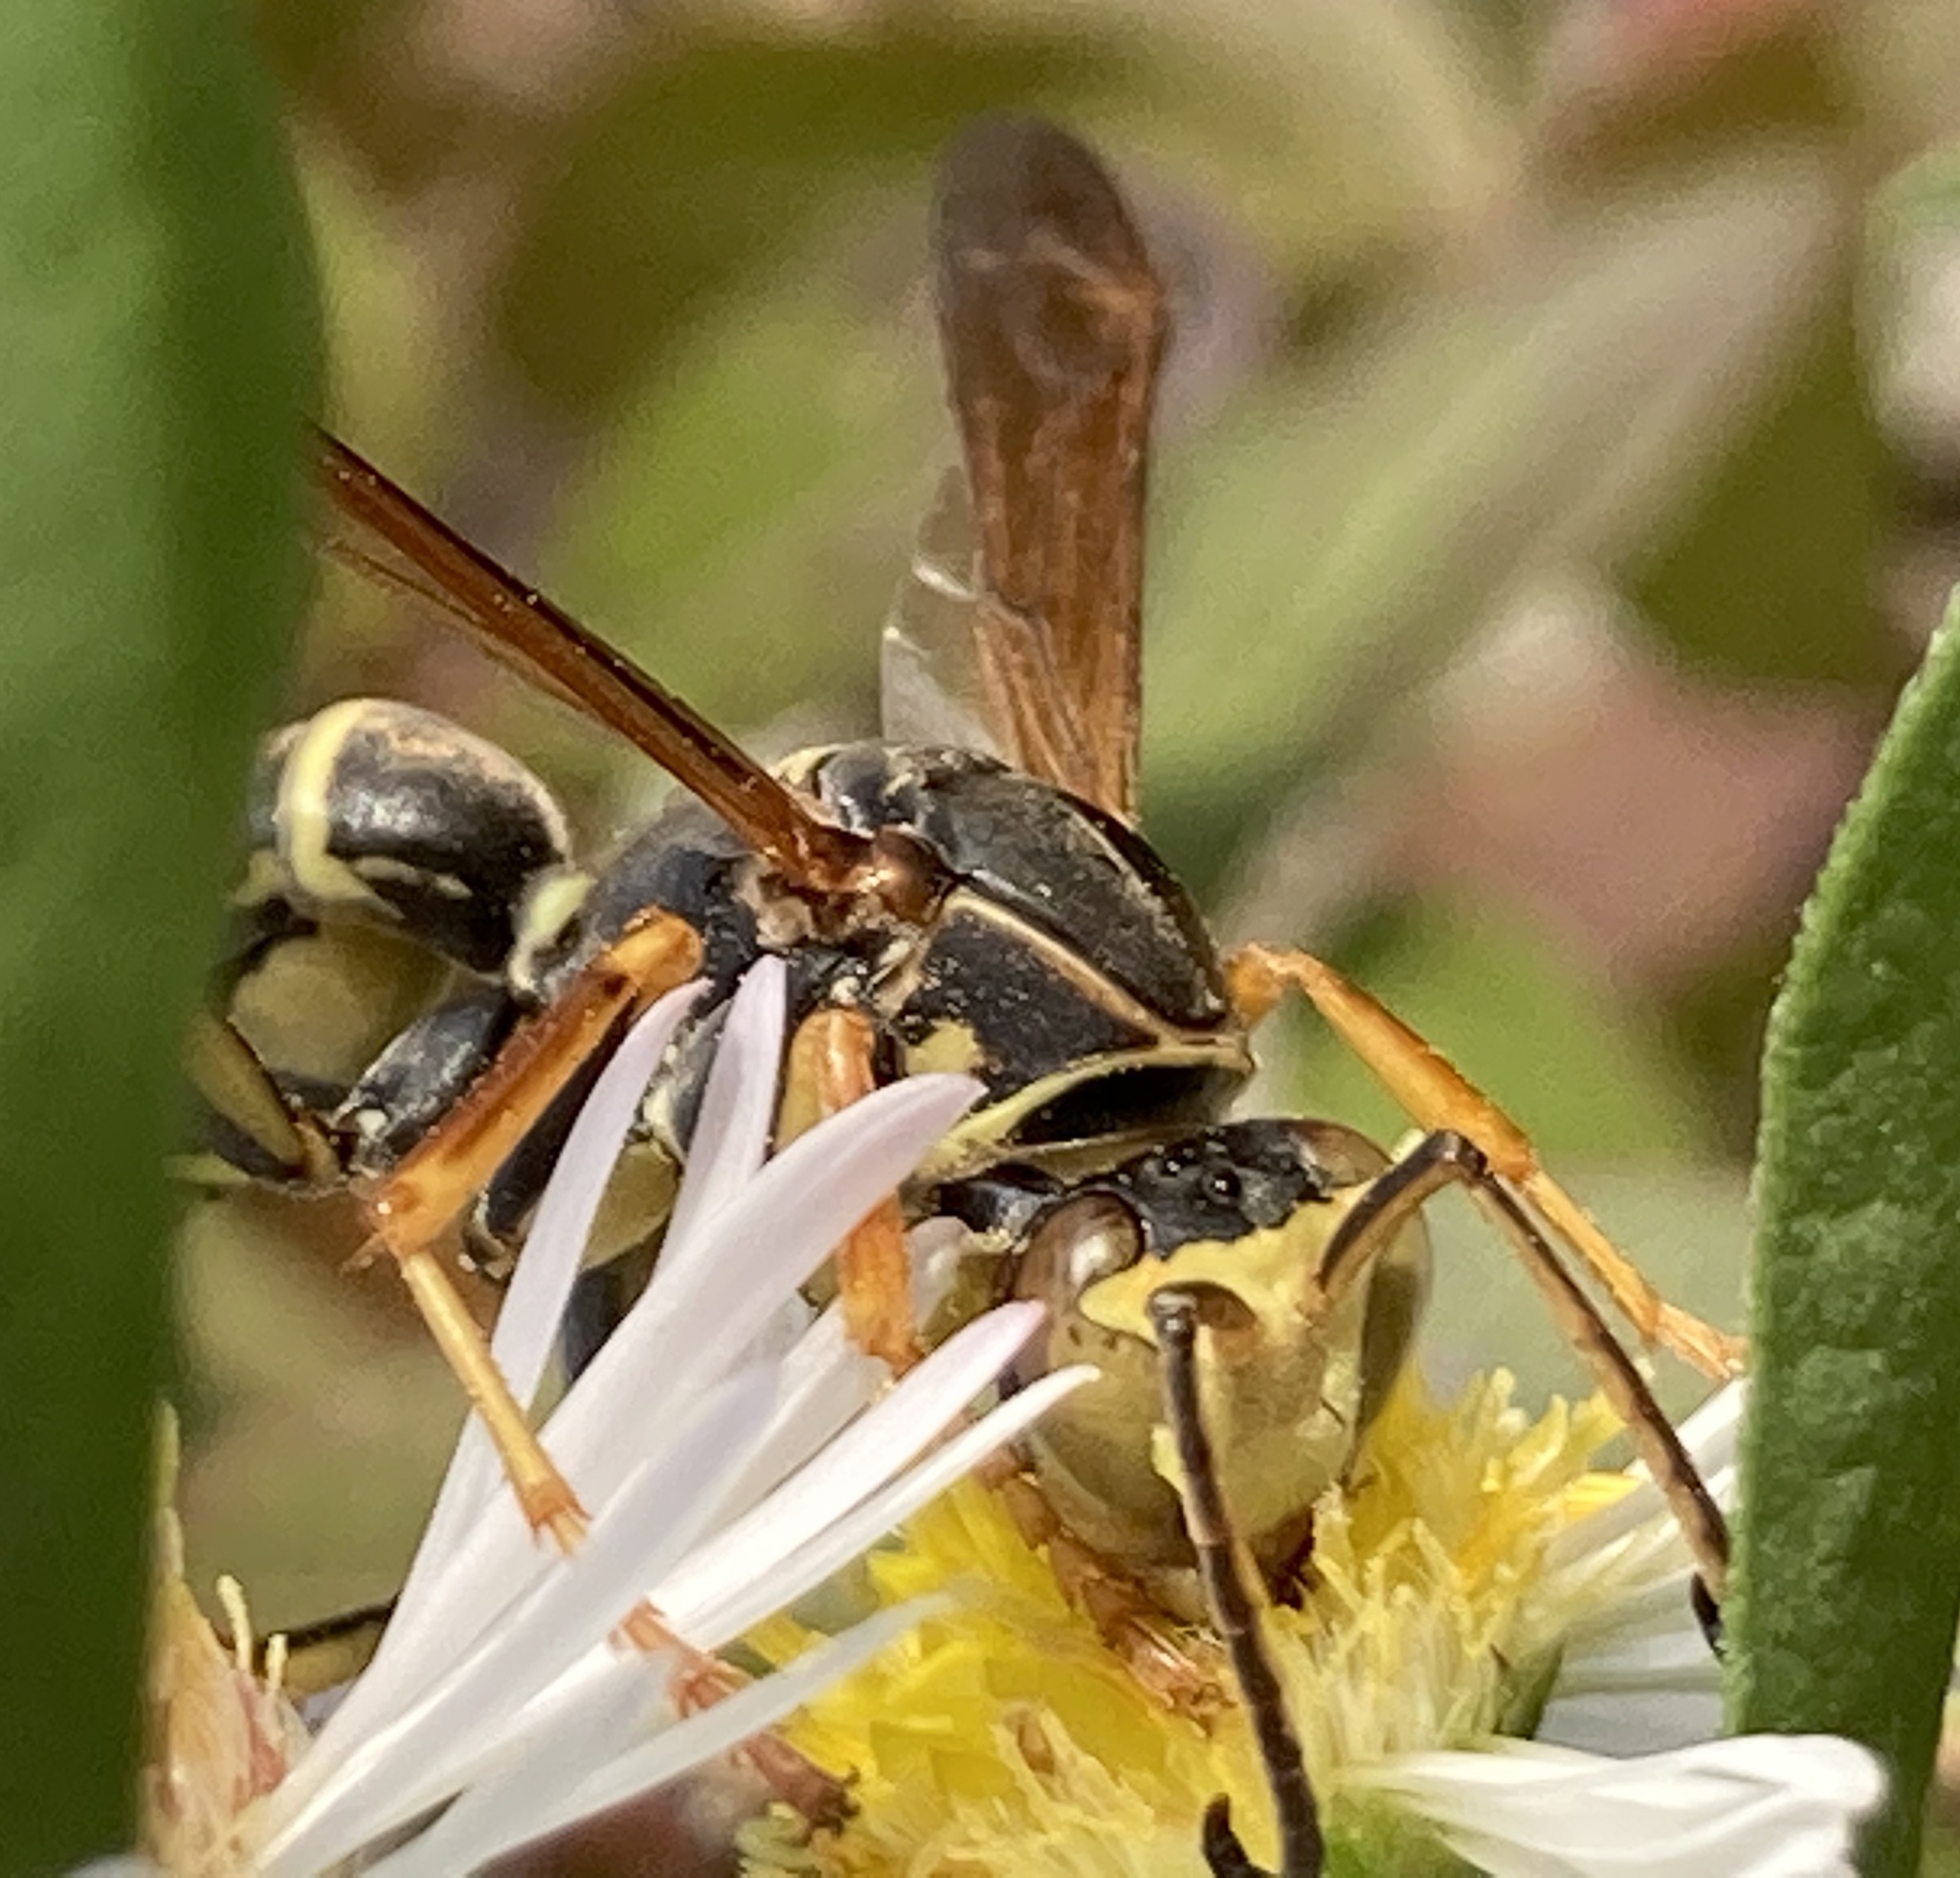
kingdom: Animalia
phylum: Arthropoda
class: Insecta
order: Hymenoptera
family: Eumenidae
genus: Polistes
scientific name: Polistes fuscatus
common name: Dark paper wasp
